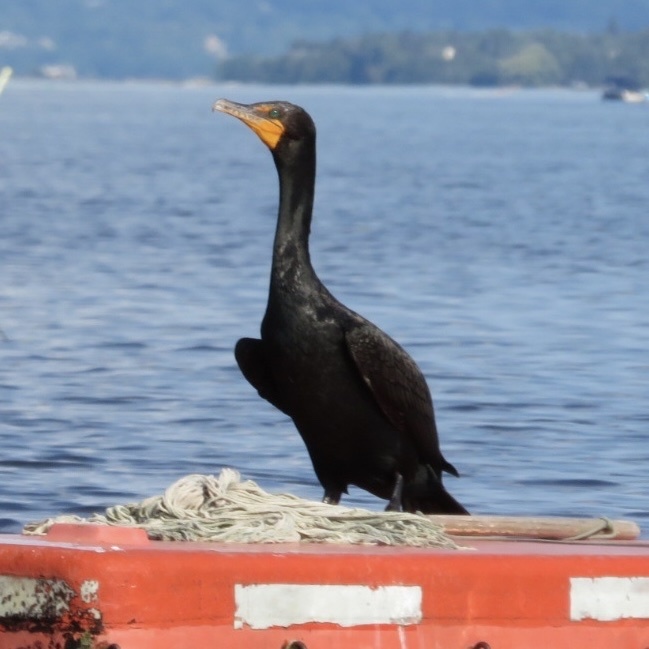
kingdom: Animalia
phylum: Chordata
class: Aves
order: Suliformes
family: Phalacrocoracidae
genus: Phalacrocorax
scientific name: Phalacrocorax auritus
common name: Double-crested cormorant
